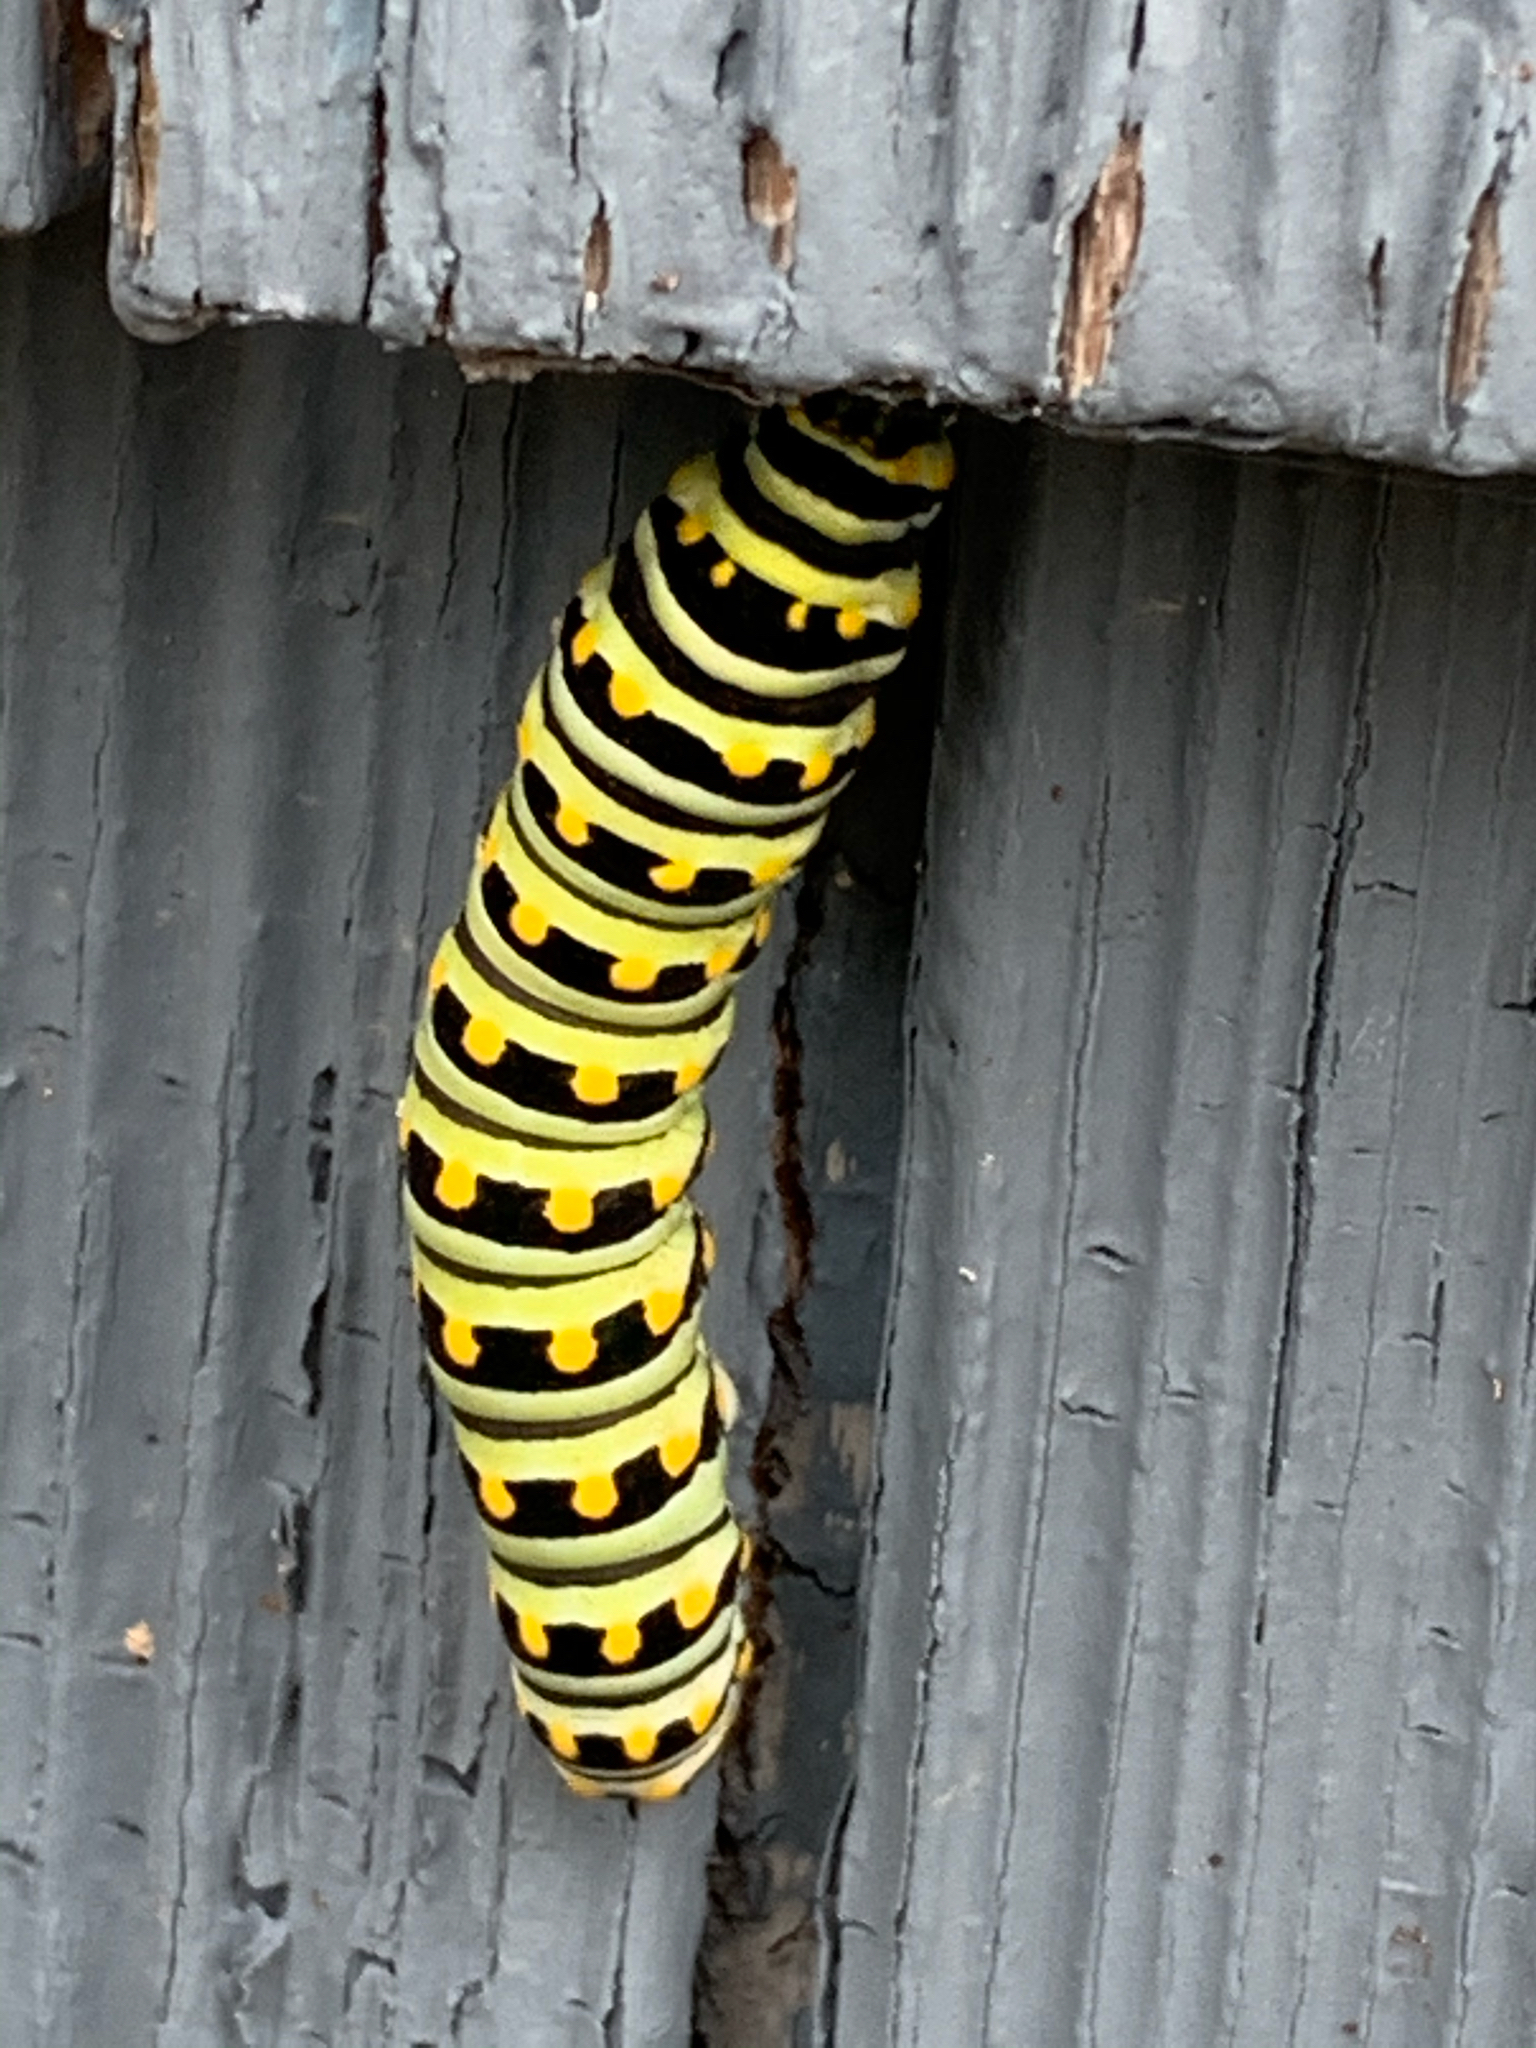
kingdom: Animalia
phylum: Arthropoda
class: Insecta
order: Lepidoptera
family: Papilionidae
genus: Papilio
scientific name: Papilio polyxenes
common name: Black swallowtail
